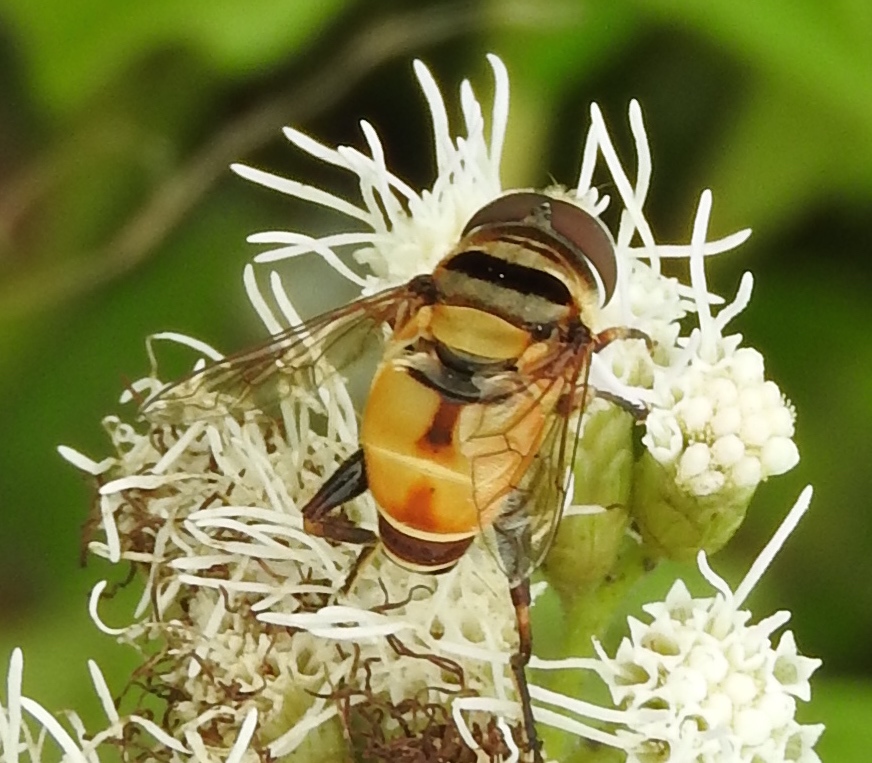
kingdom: Animalia
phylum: Arthropoda
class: Insecta
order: Diptera
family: Syrphidae
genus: Palpada
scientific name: Palpada
